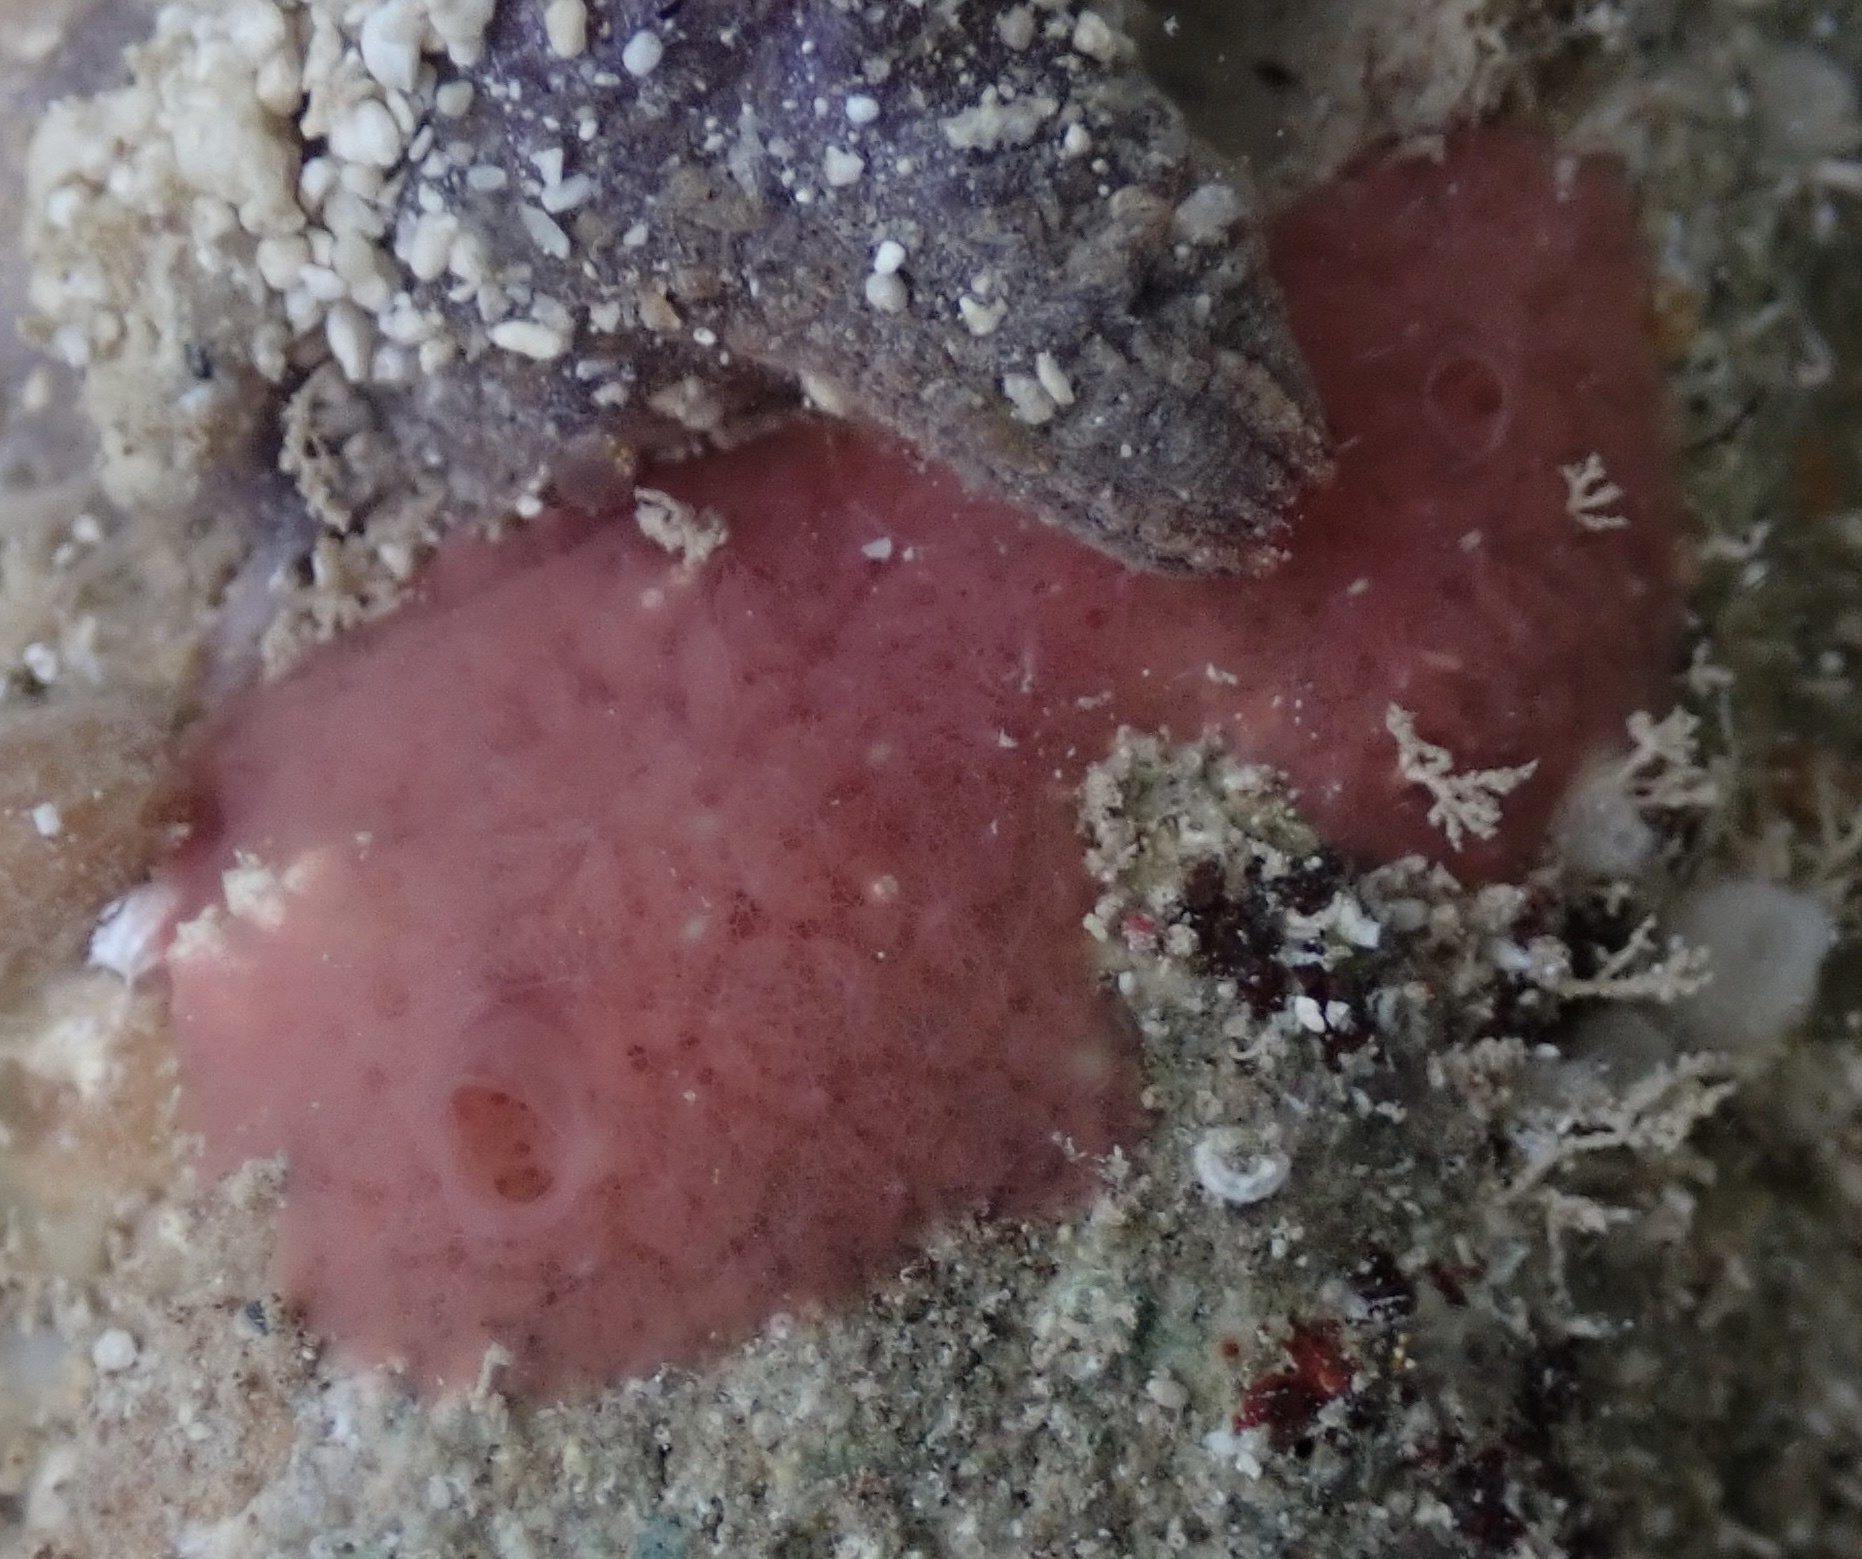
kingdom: Animalia
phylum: Porifera
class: Demospongiae
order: Dendroceratida
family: Darwinellidae
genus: Aplysilla
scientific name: Aplysilla rosea
